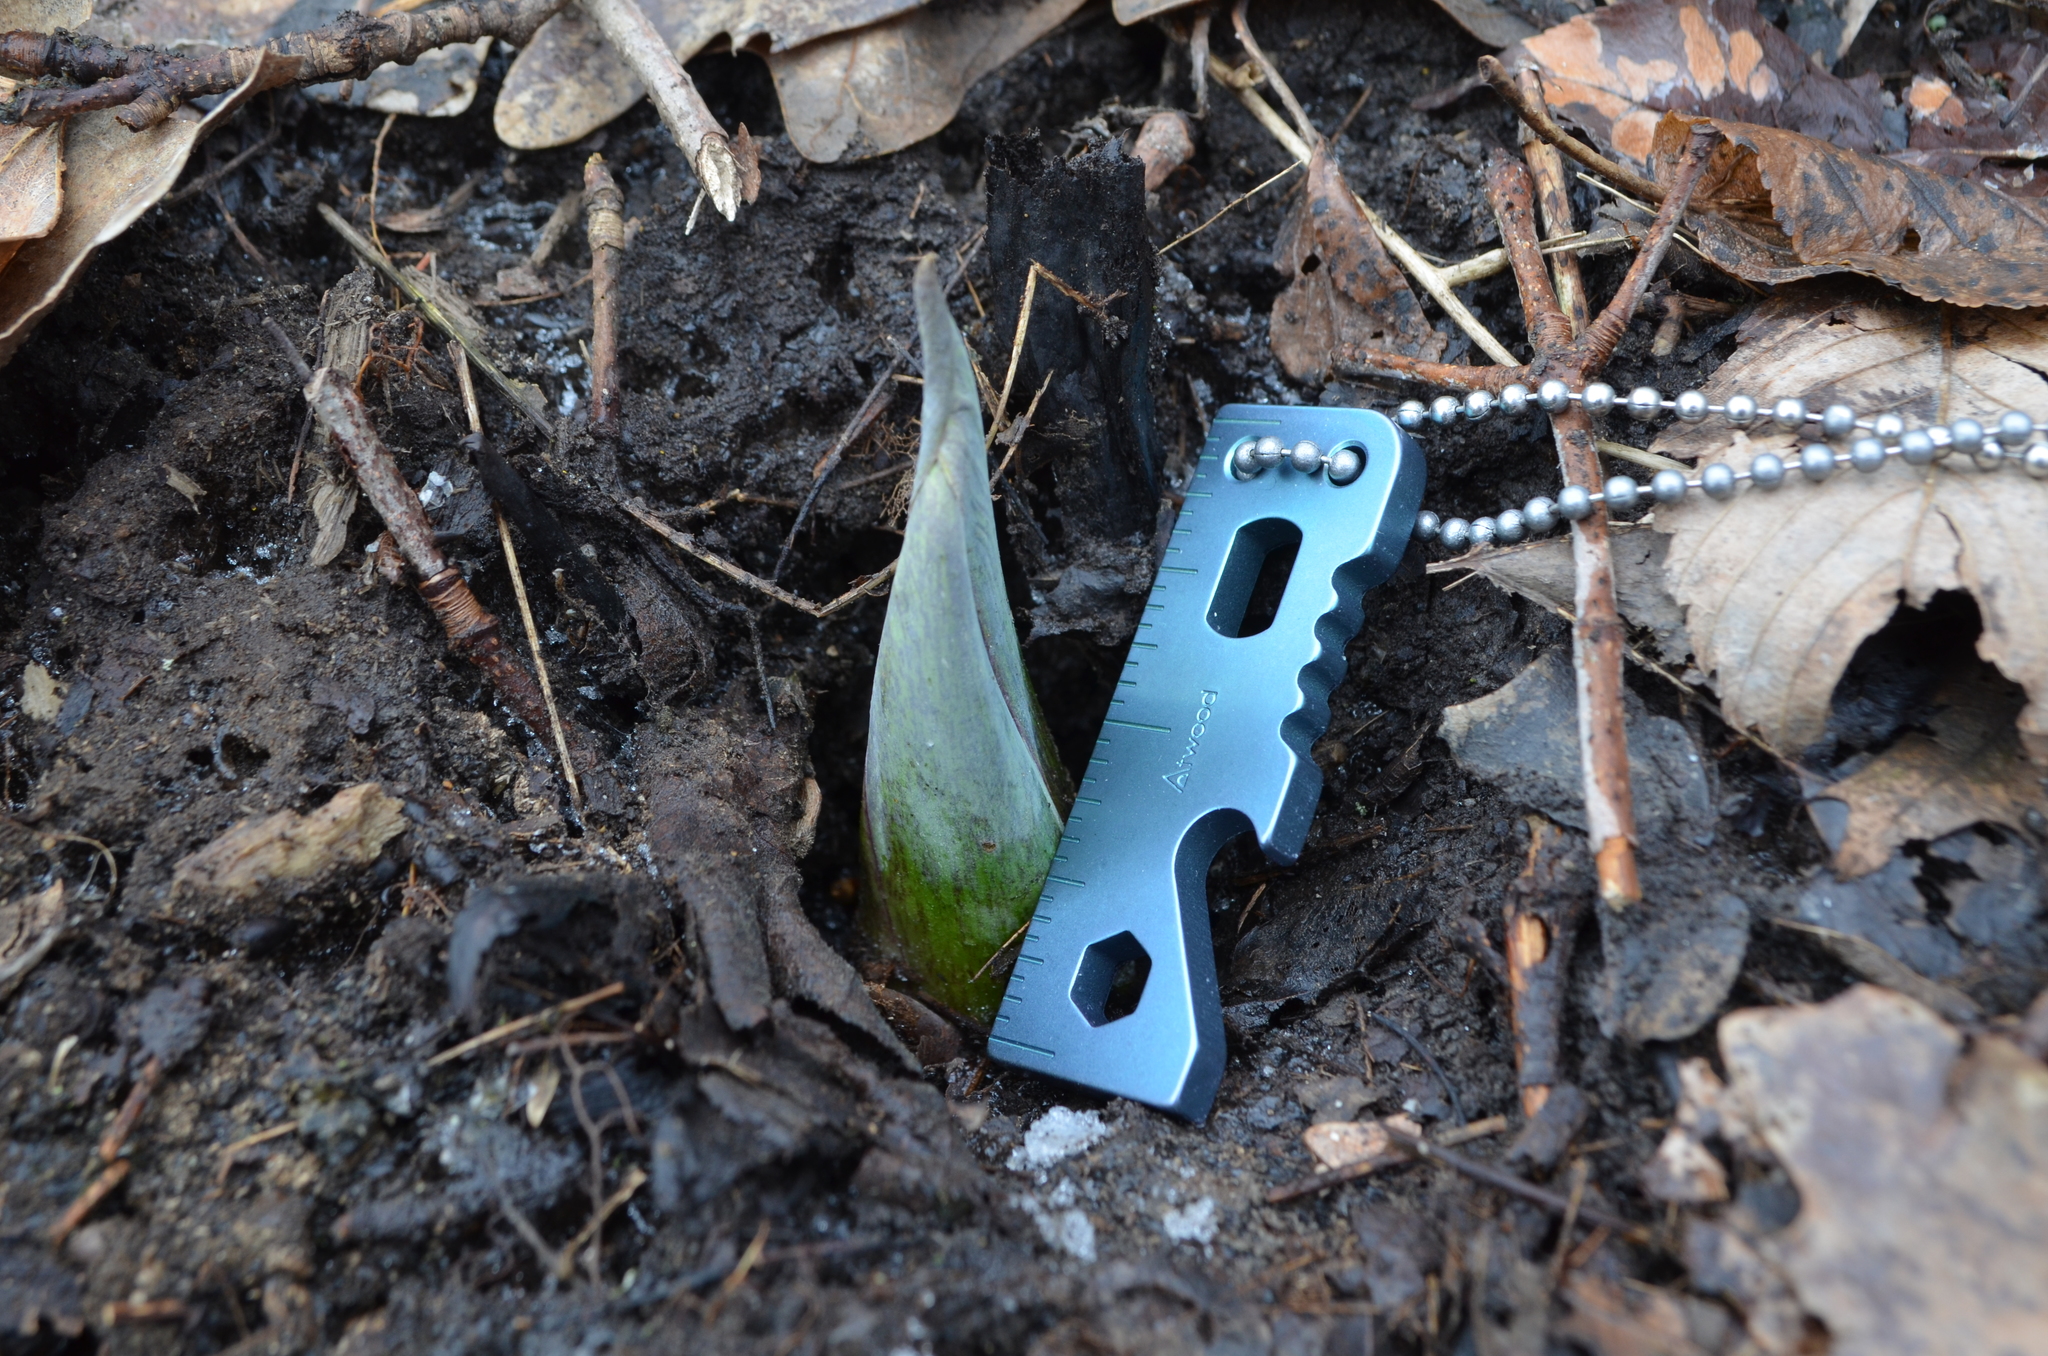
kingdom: Plantae
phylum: Tracheophyta
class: Liliopsida
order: Alismatales
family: Araceae
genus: Symplocarpus
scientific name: Symplocarpus foetidus
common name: Eastern skunk cabbage
